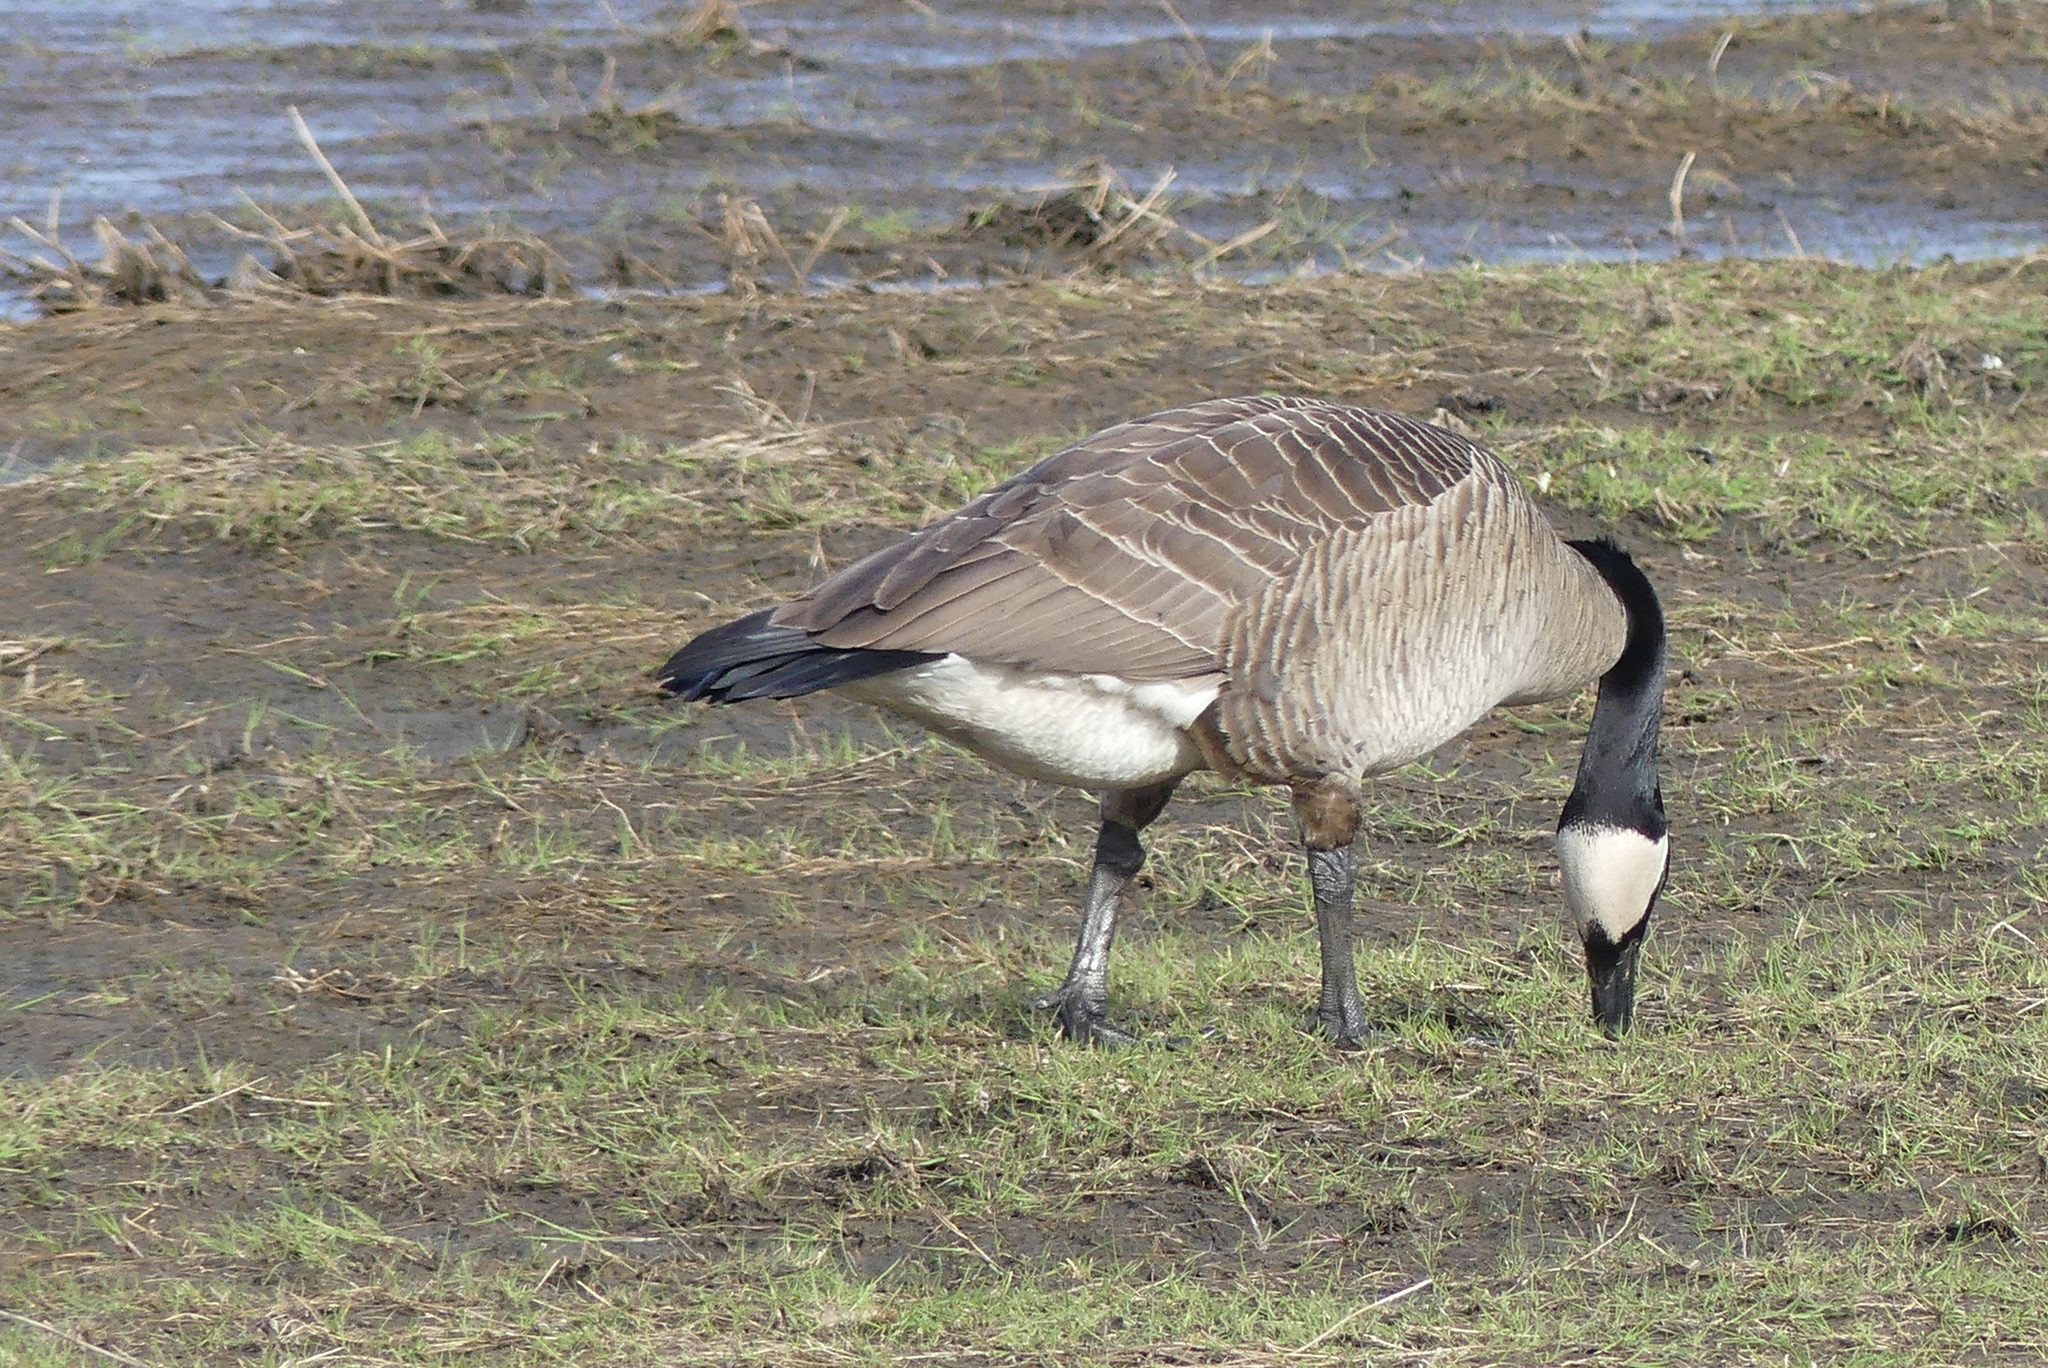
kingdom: Animalia
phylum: Chordata
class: Aves
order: Anseriformes
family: Anatidae
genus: Branta
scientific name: Branta canadensis
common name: Canada goose
